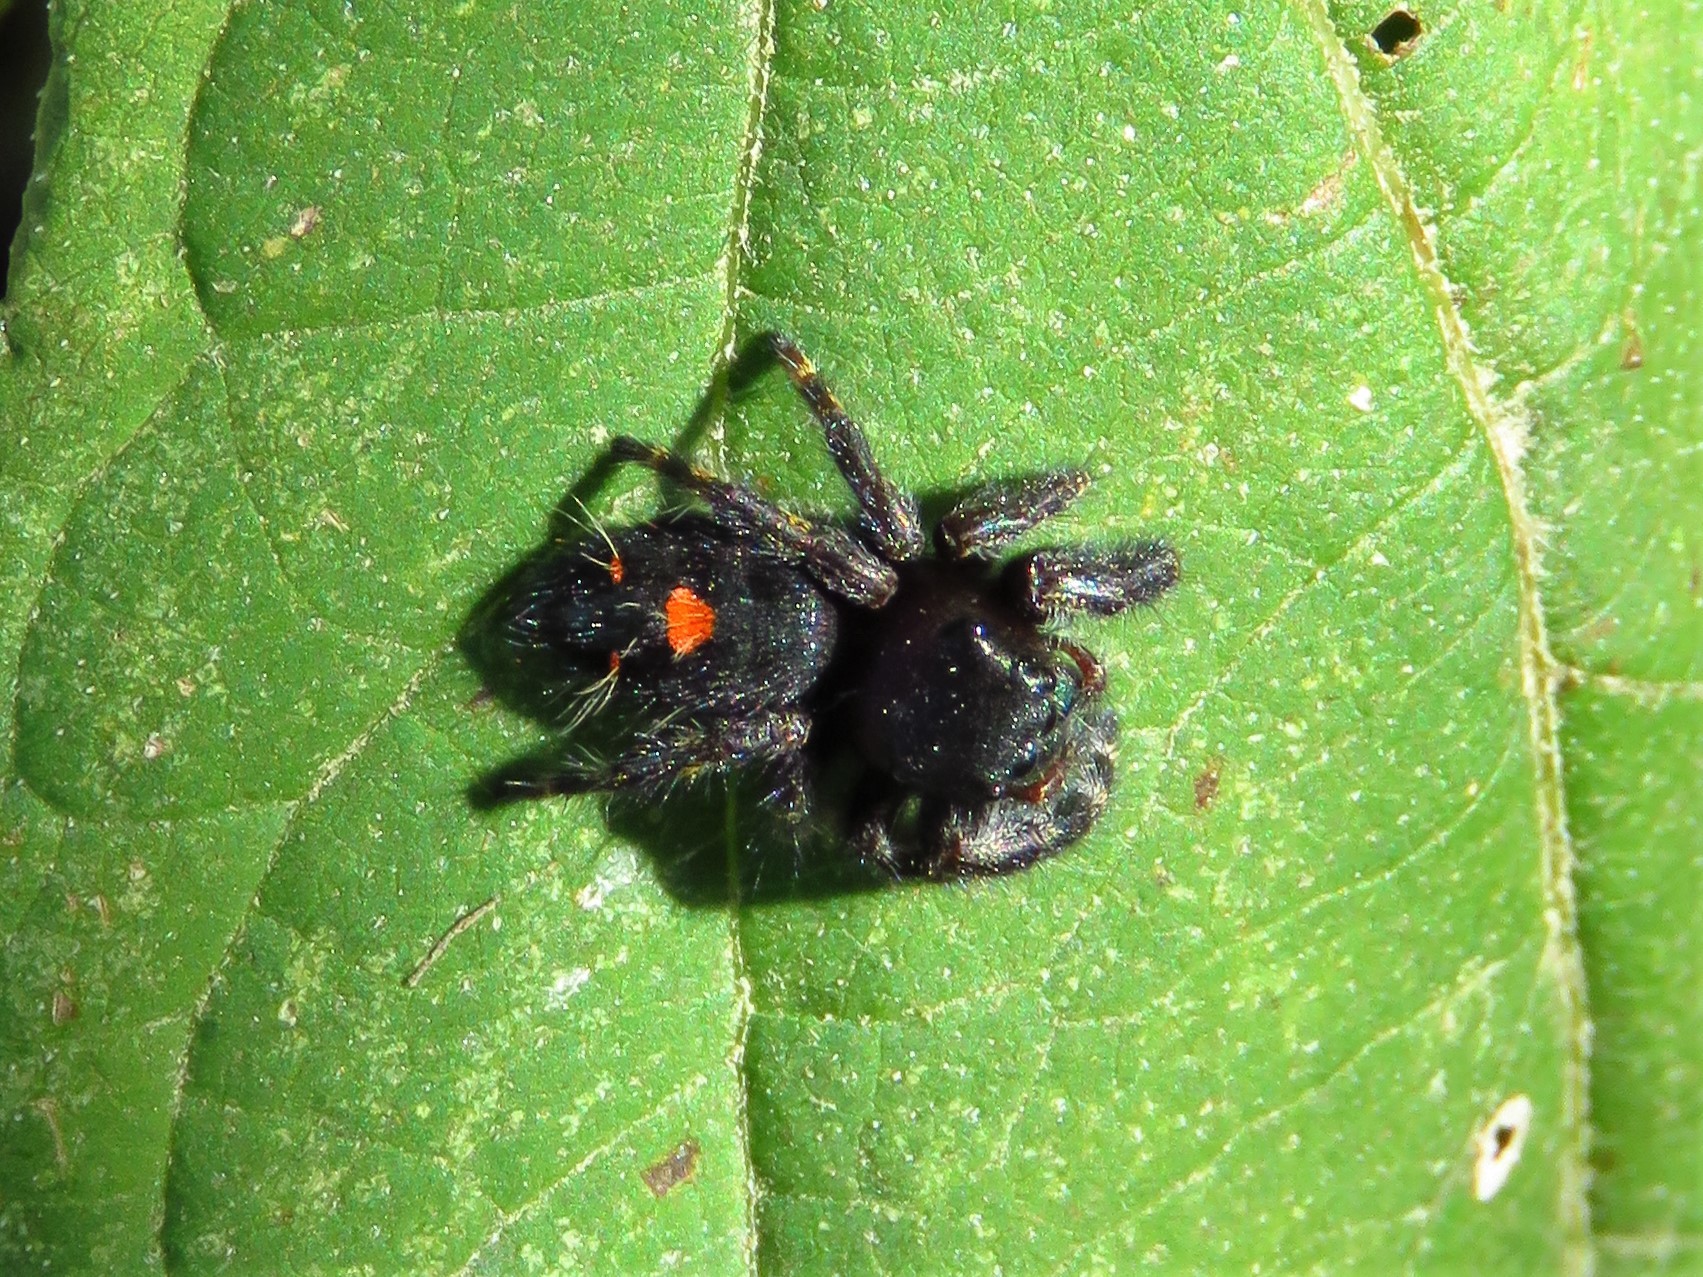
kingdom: Animalia
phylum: Arthropoda
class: Arachnida
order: Araneae
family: Salticidae
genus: Phidippus
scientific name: Phidippus audax
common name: Bold jumper
